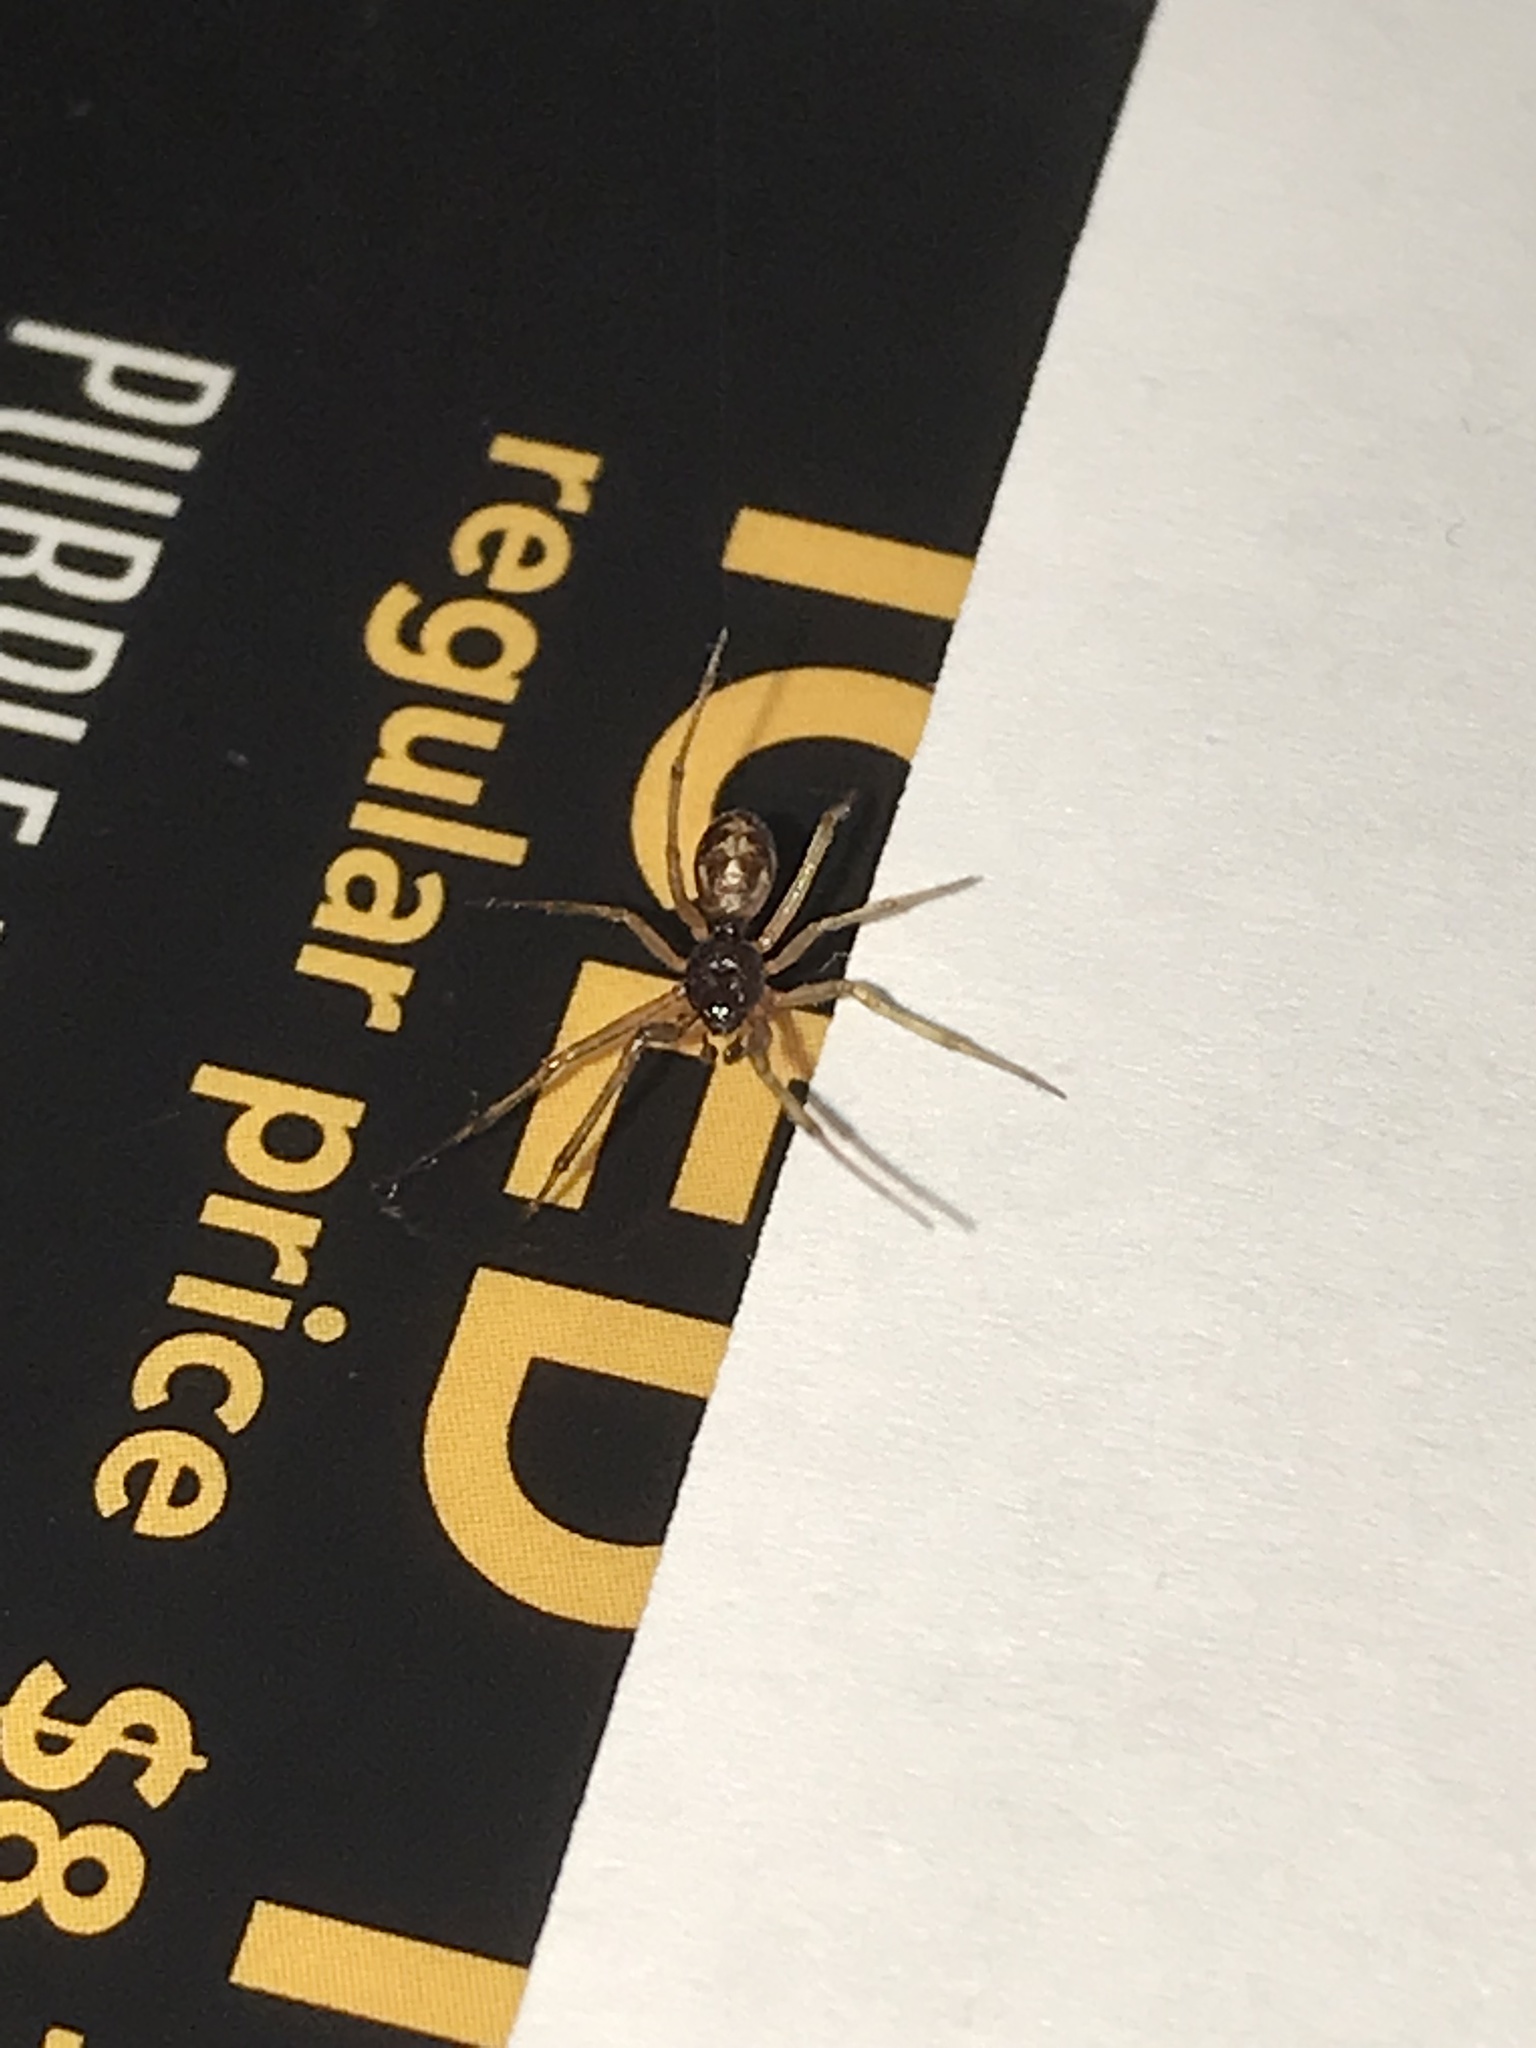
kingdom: Animalia
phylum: Arthropoda
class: Arachnida
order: Araneae
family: Theridiidae
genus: Steatoda
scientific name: Steatoda triangulosa
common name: Triangulate bud spider
